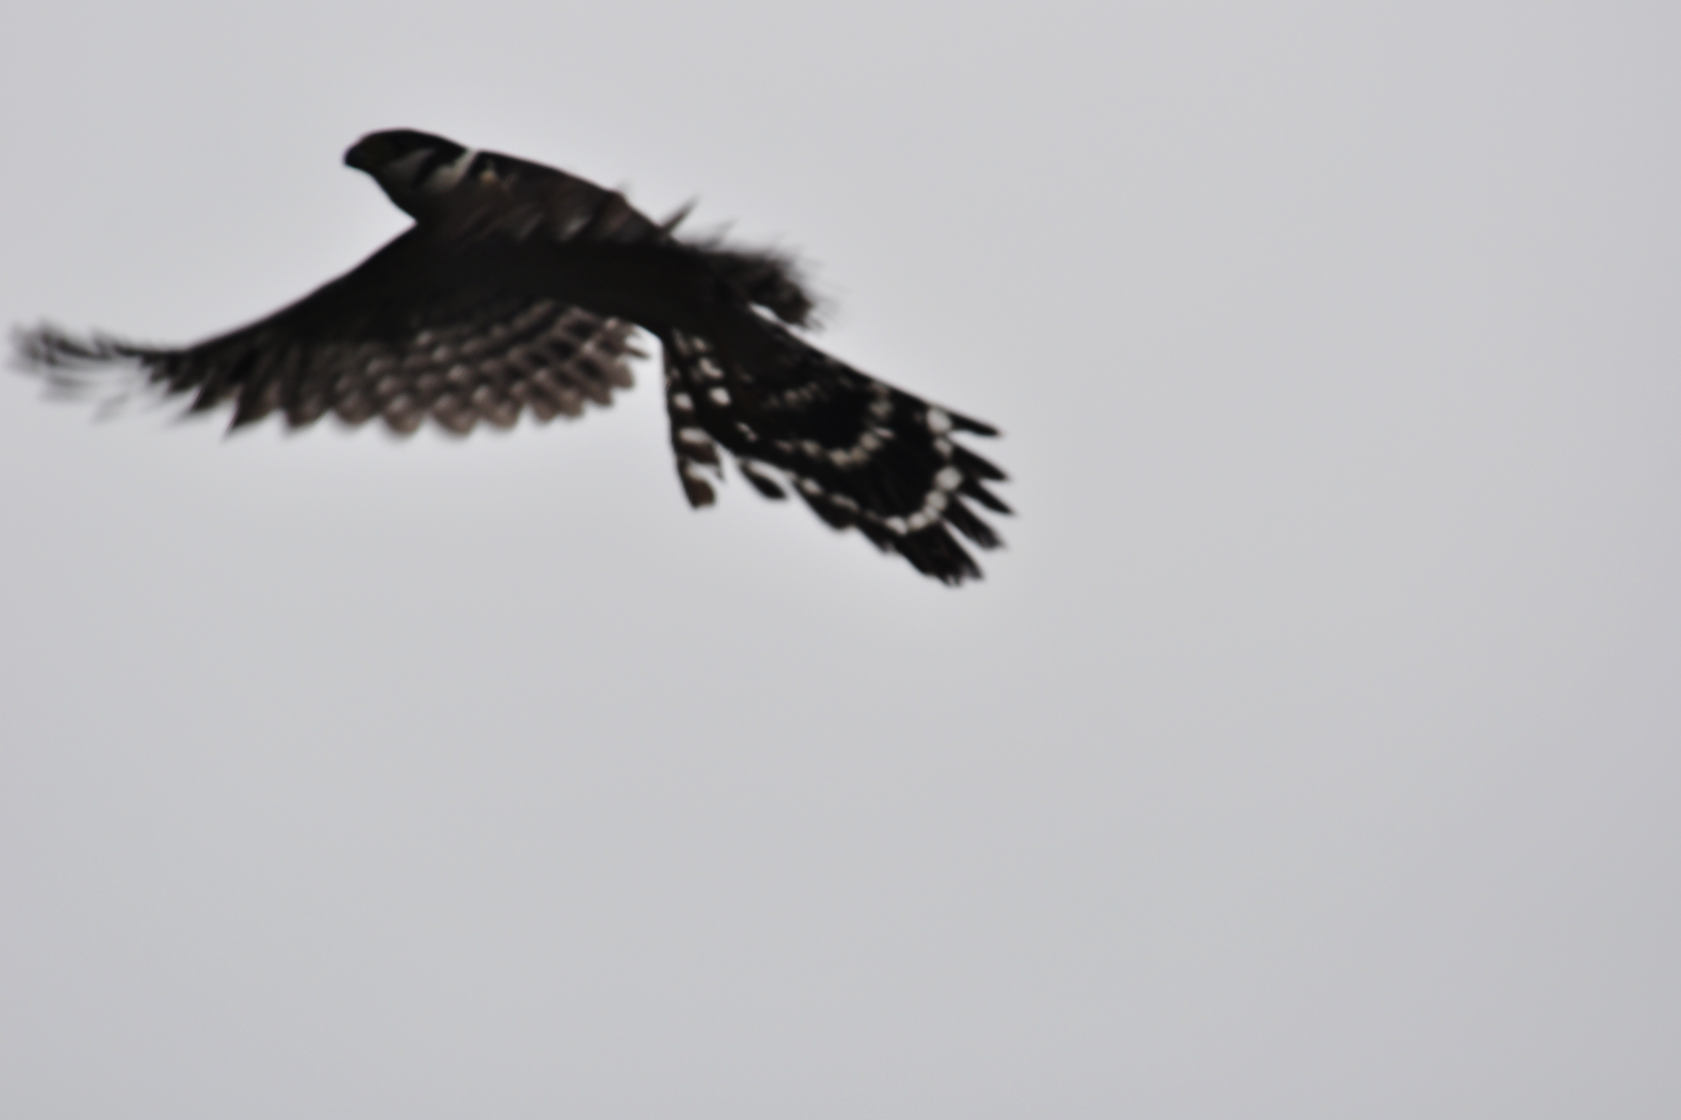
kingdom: Animalia
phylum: Chordata
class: Aves
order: Falconiformes
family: Falconidae
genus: Micrastur
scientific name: Micrastur semitorquatus
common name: Collared forest-falcon
